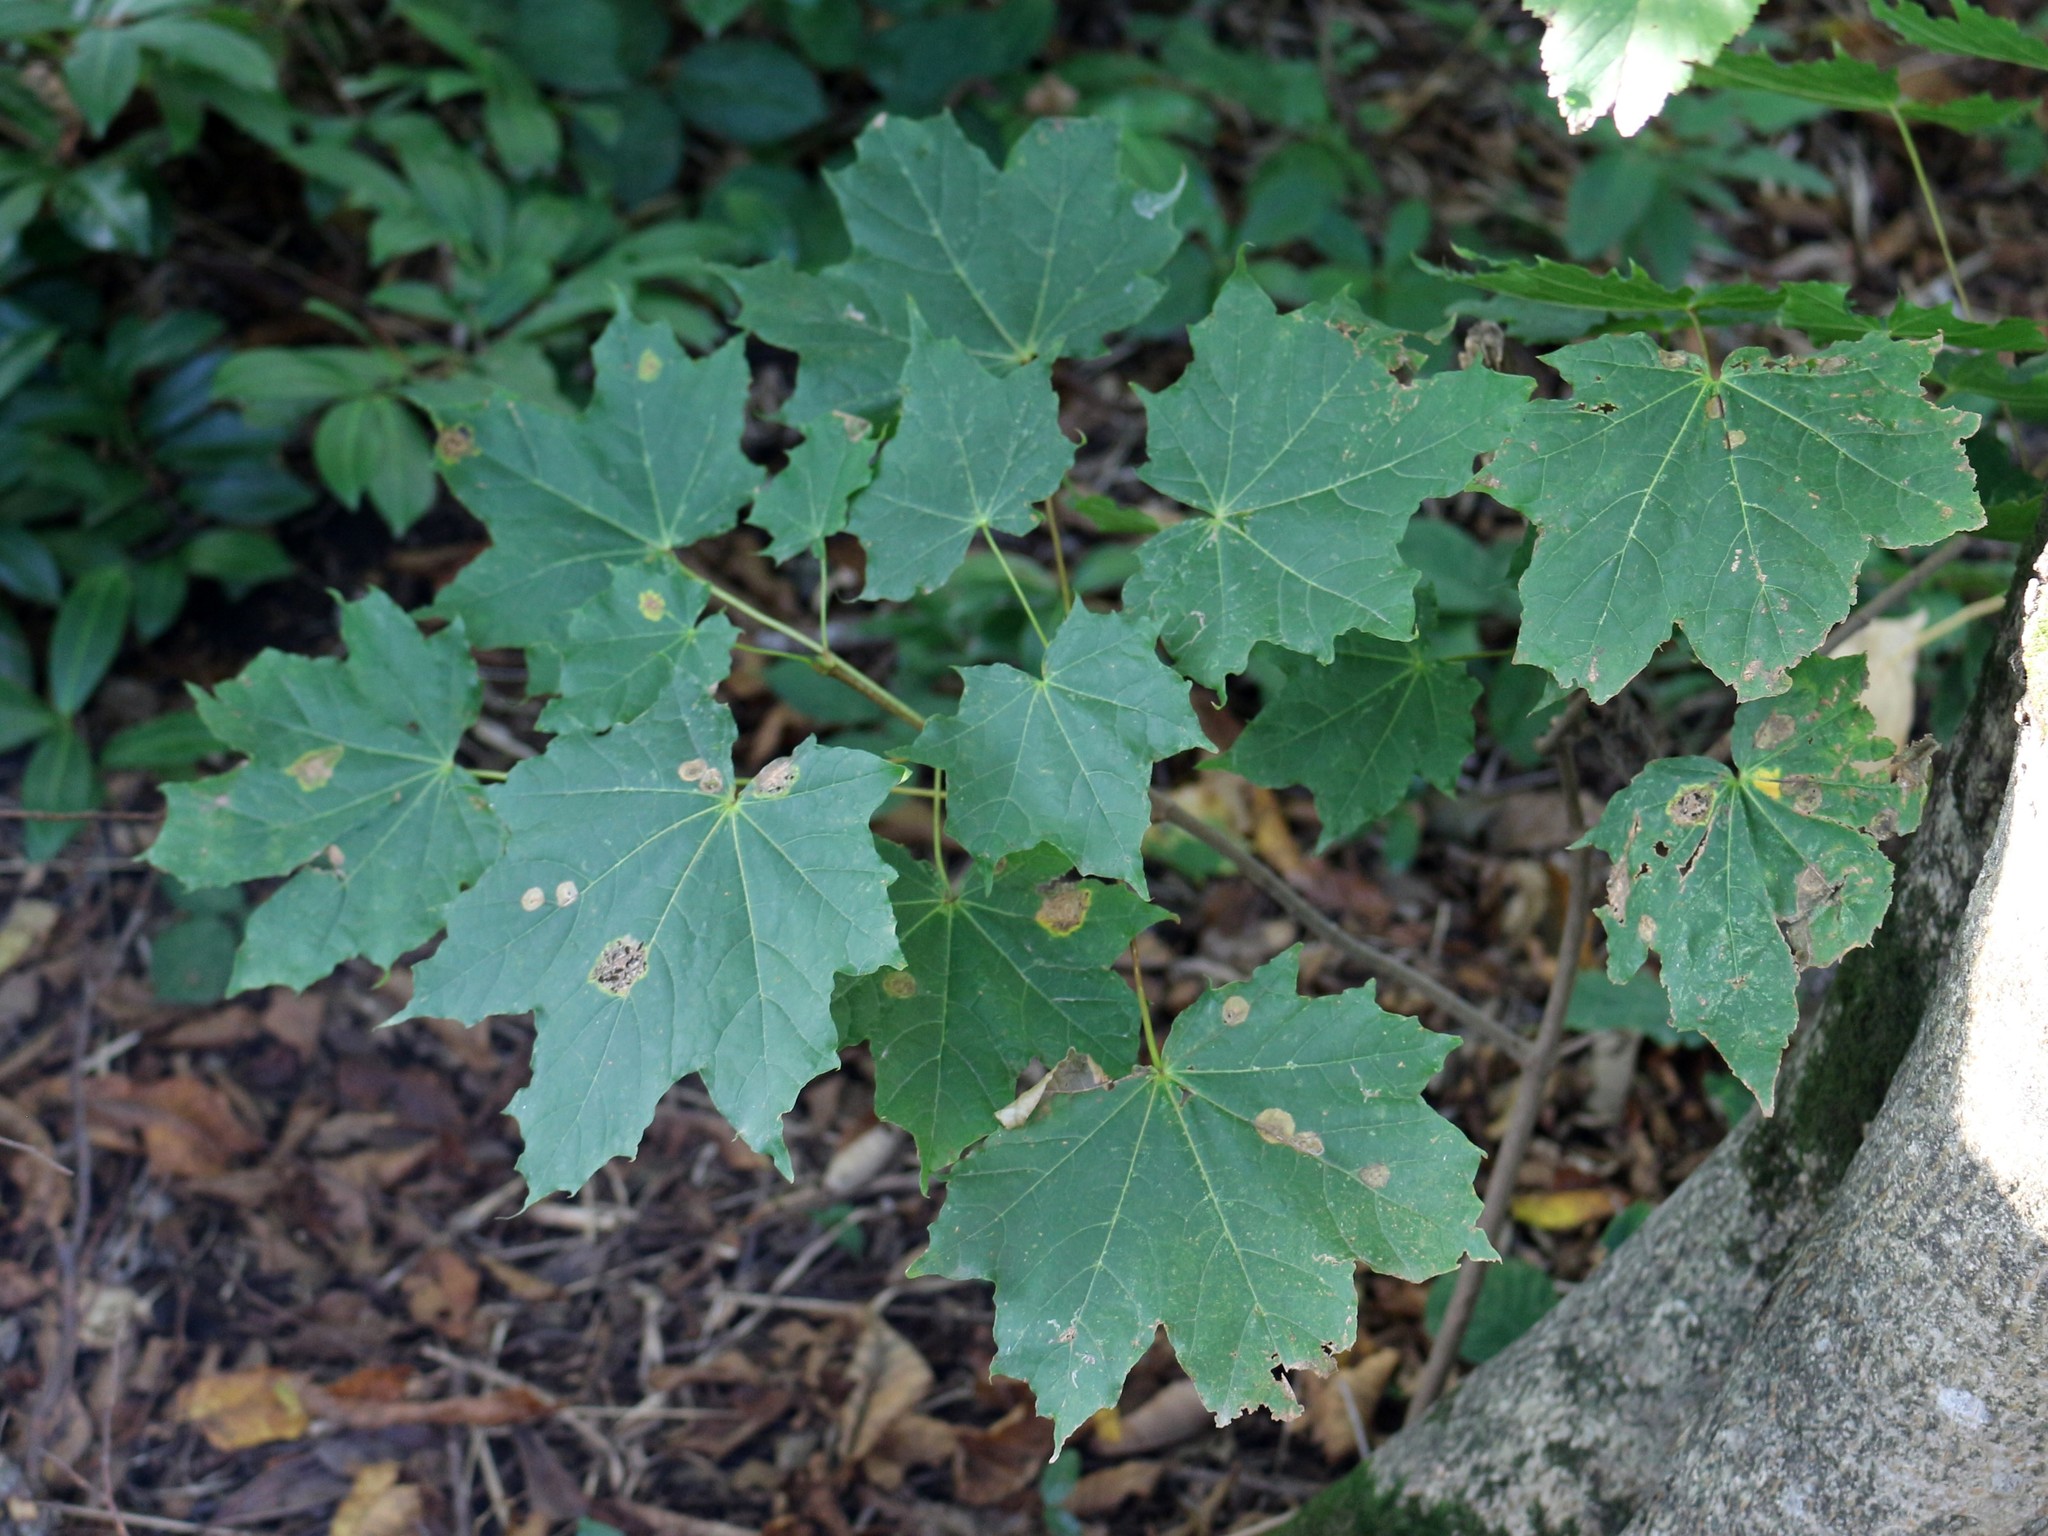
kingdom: Plantae
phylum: Tracheophyta
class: Magnoliopsida
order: Sapindales
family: Sapindaceae
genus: Acer
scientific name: Acer platanoides
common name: Norway maple
